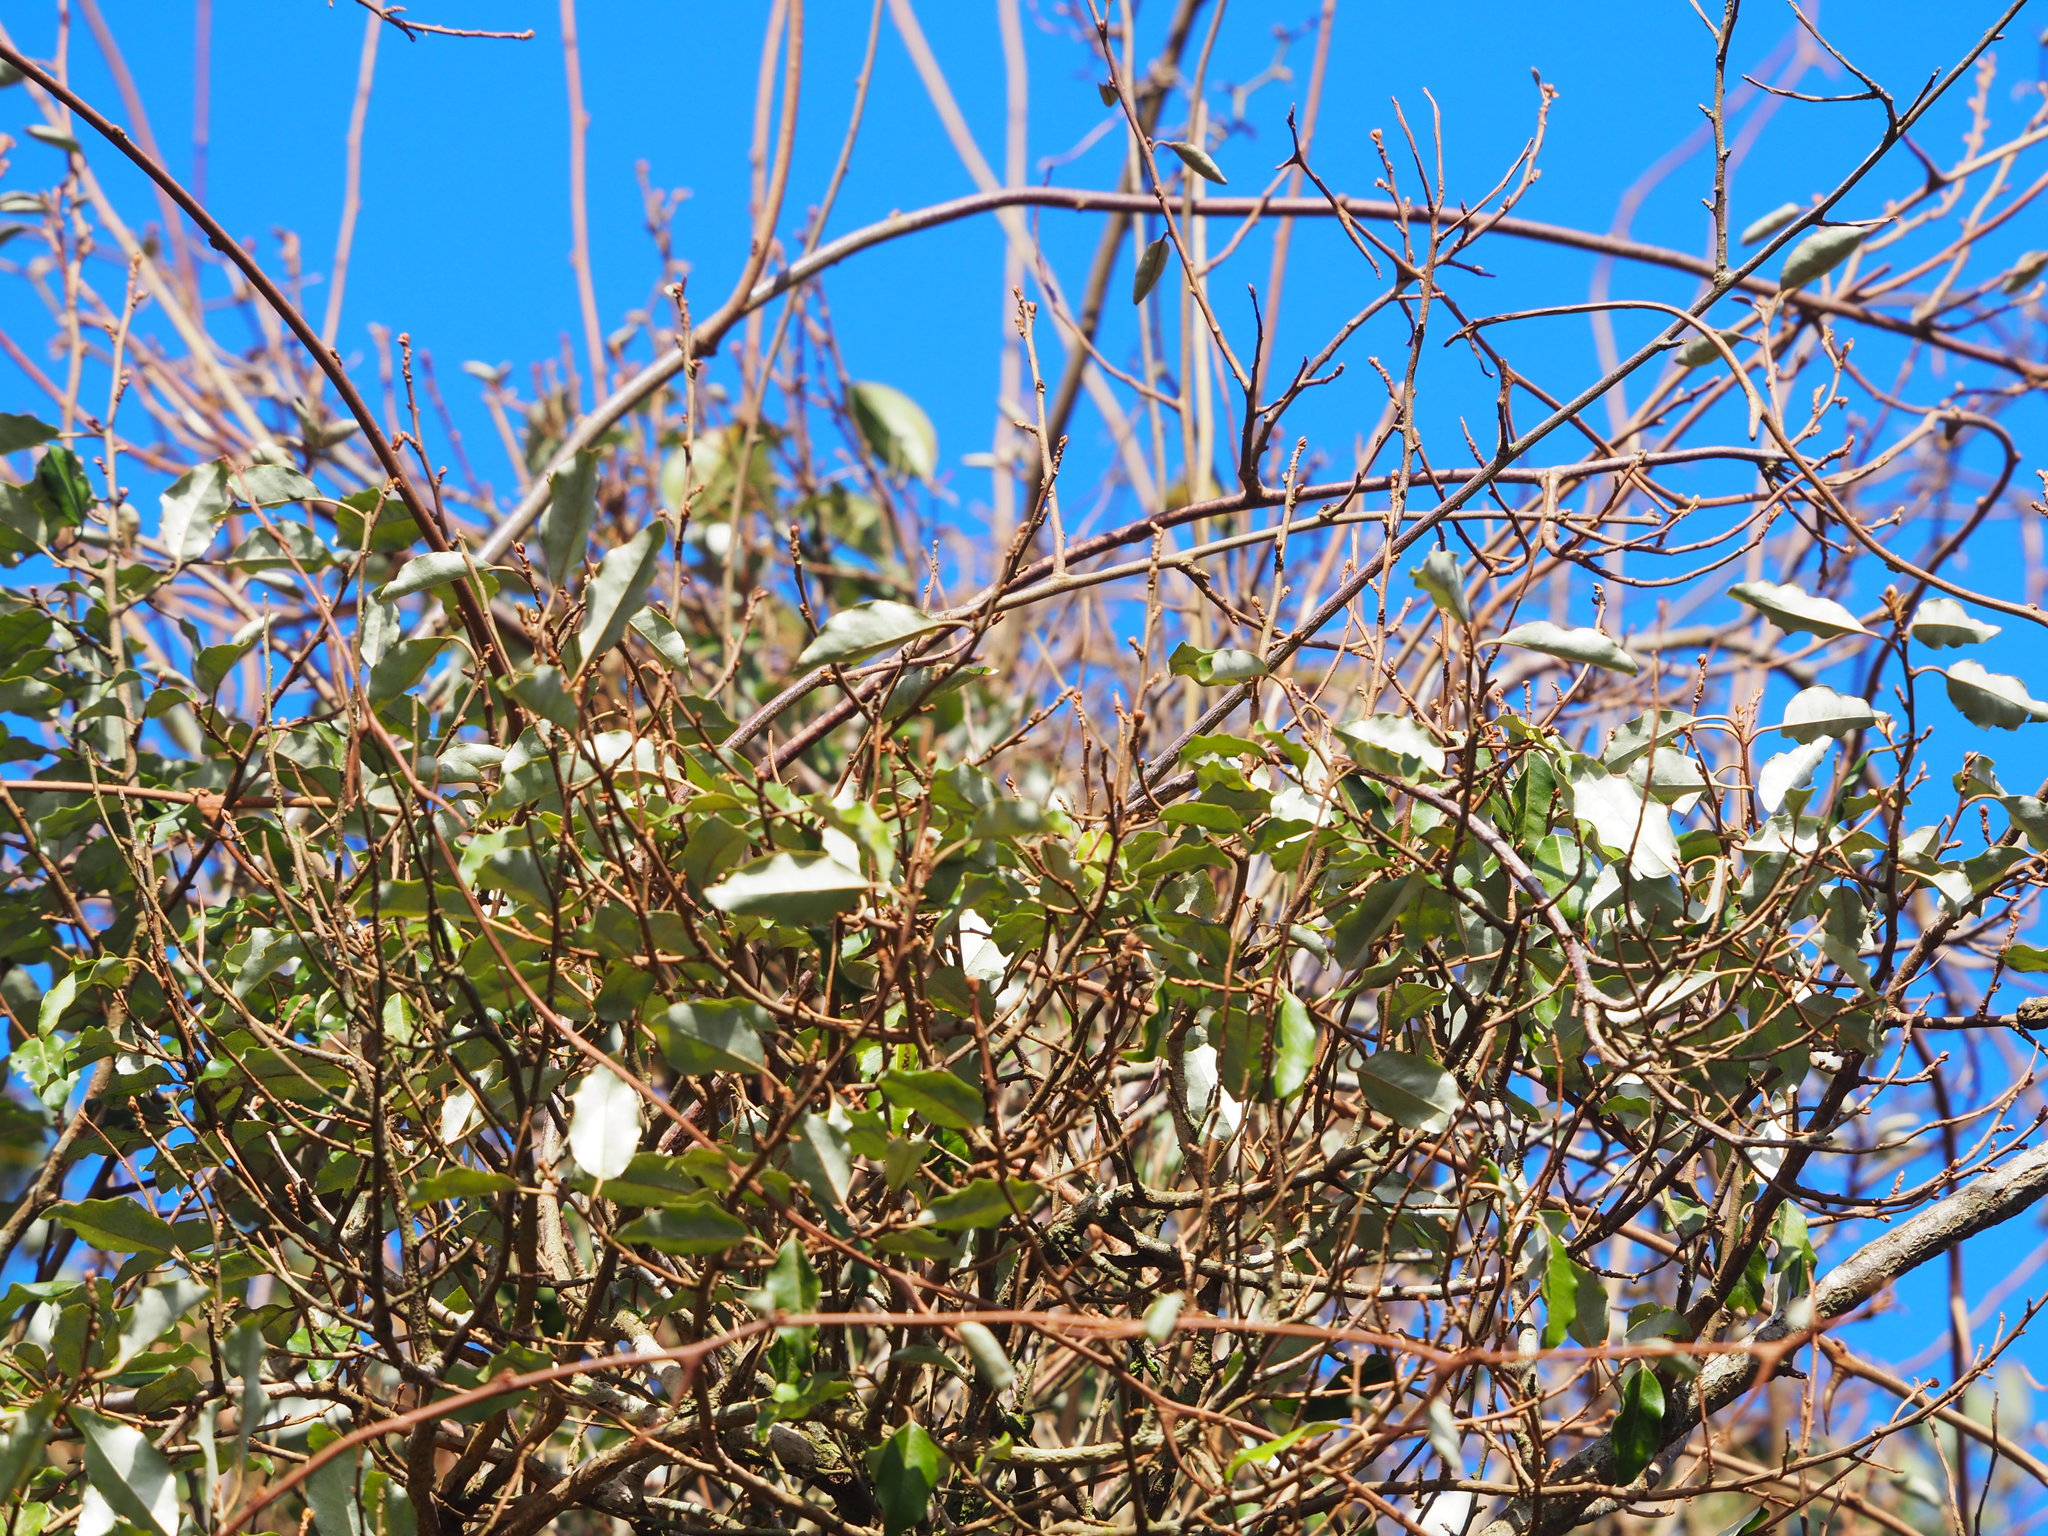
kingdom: Plantae
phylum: Tracheophyta
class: Magnoliopsida
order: Rosales
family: Elaeagnaceae
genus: Elaeagnus
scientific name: Elaeagnus glabra
